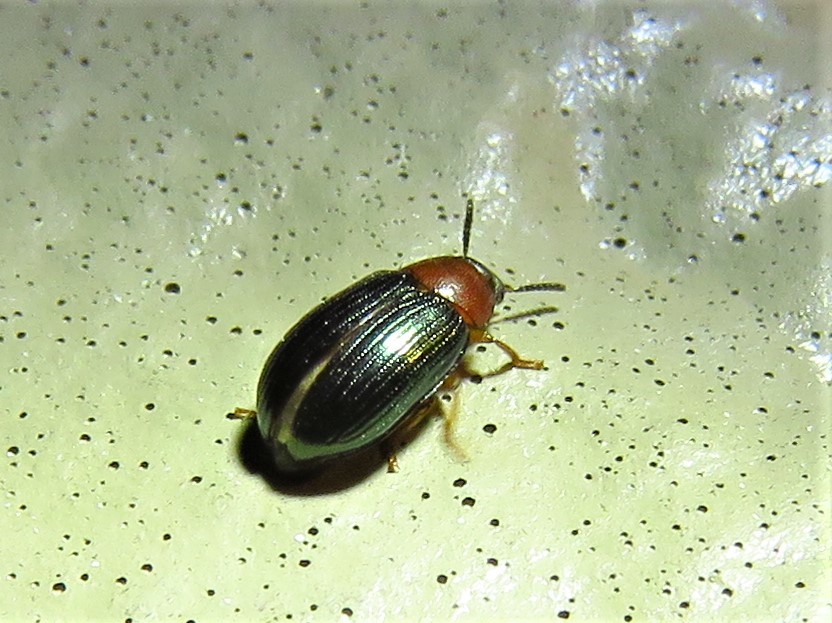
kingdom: Animalia
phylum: Arthropoda
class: Insecta
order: Coleoptera
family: Tenebrionidae
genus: Neomida
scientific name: Neomida bicornis
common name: Two-horned darkling beetle
